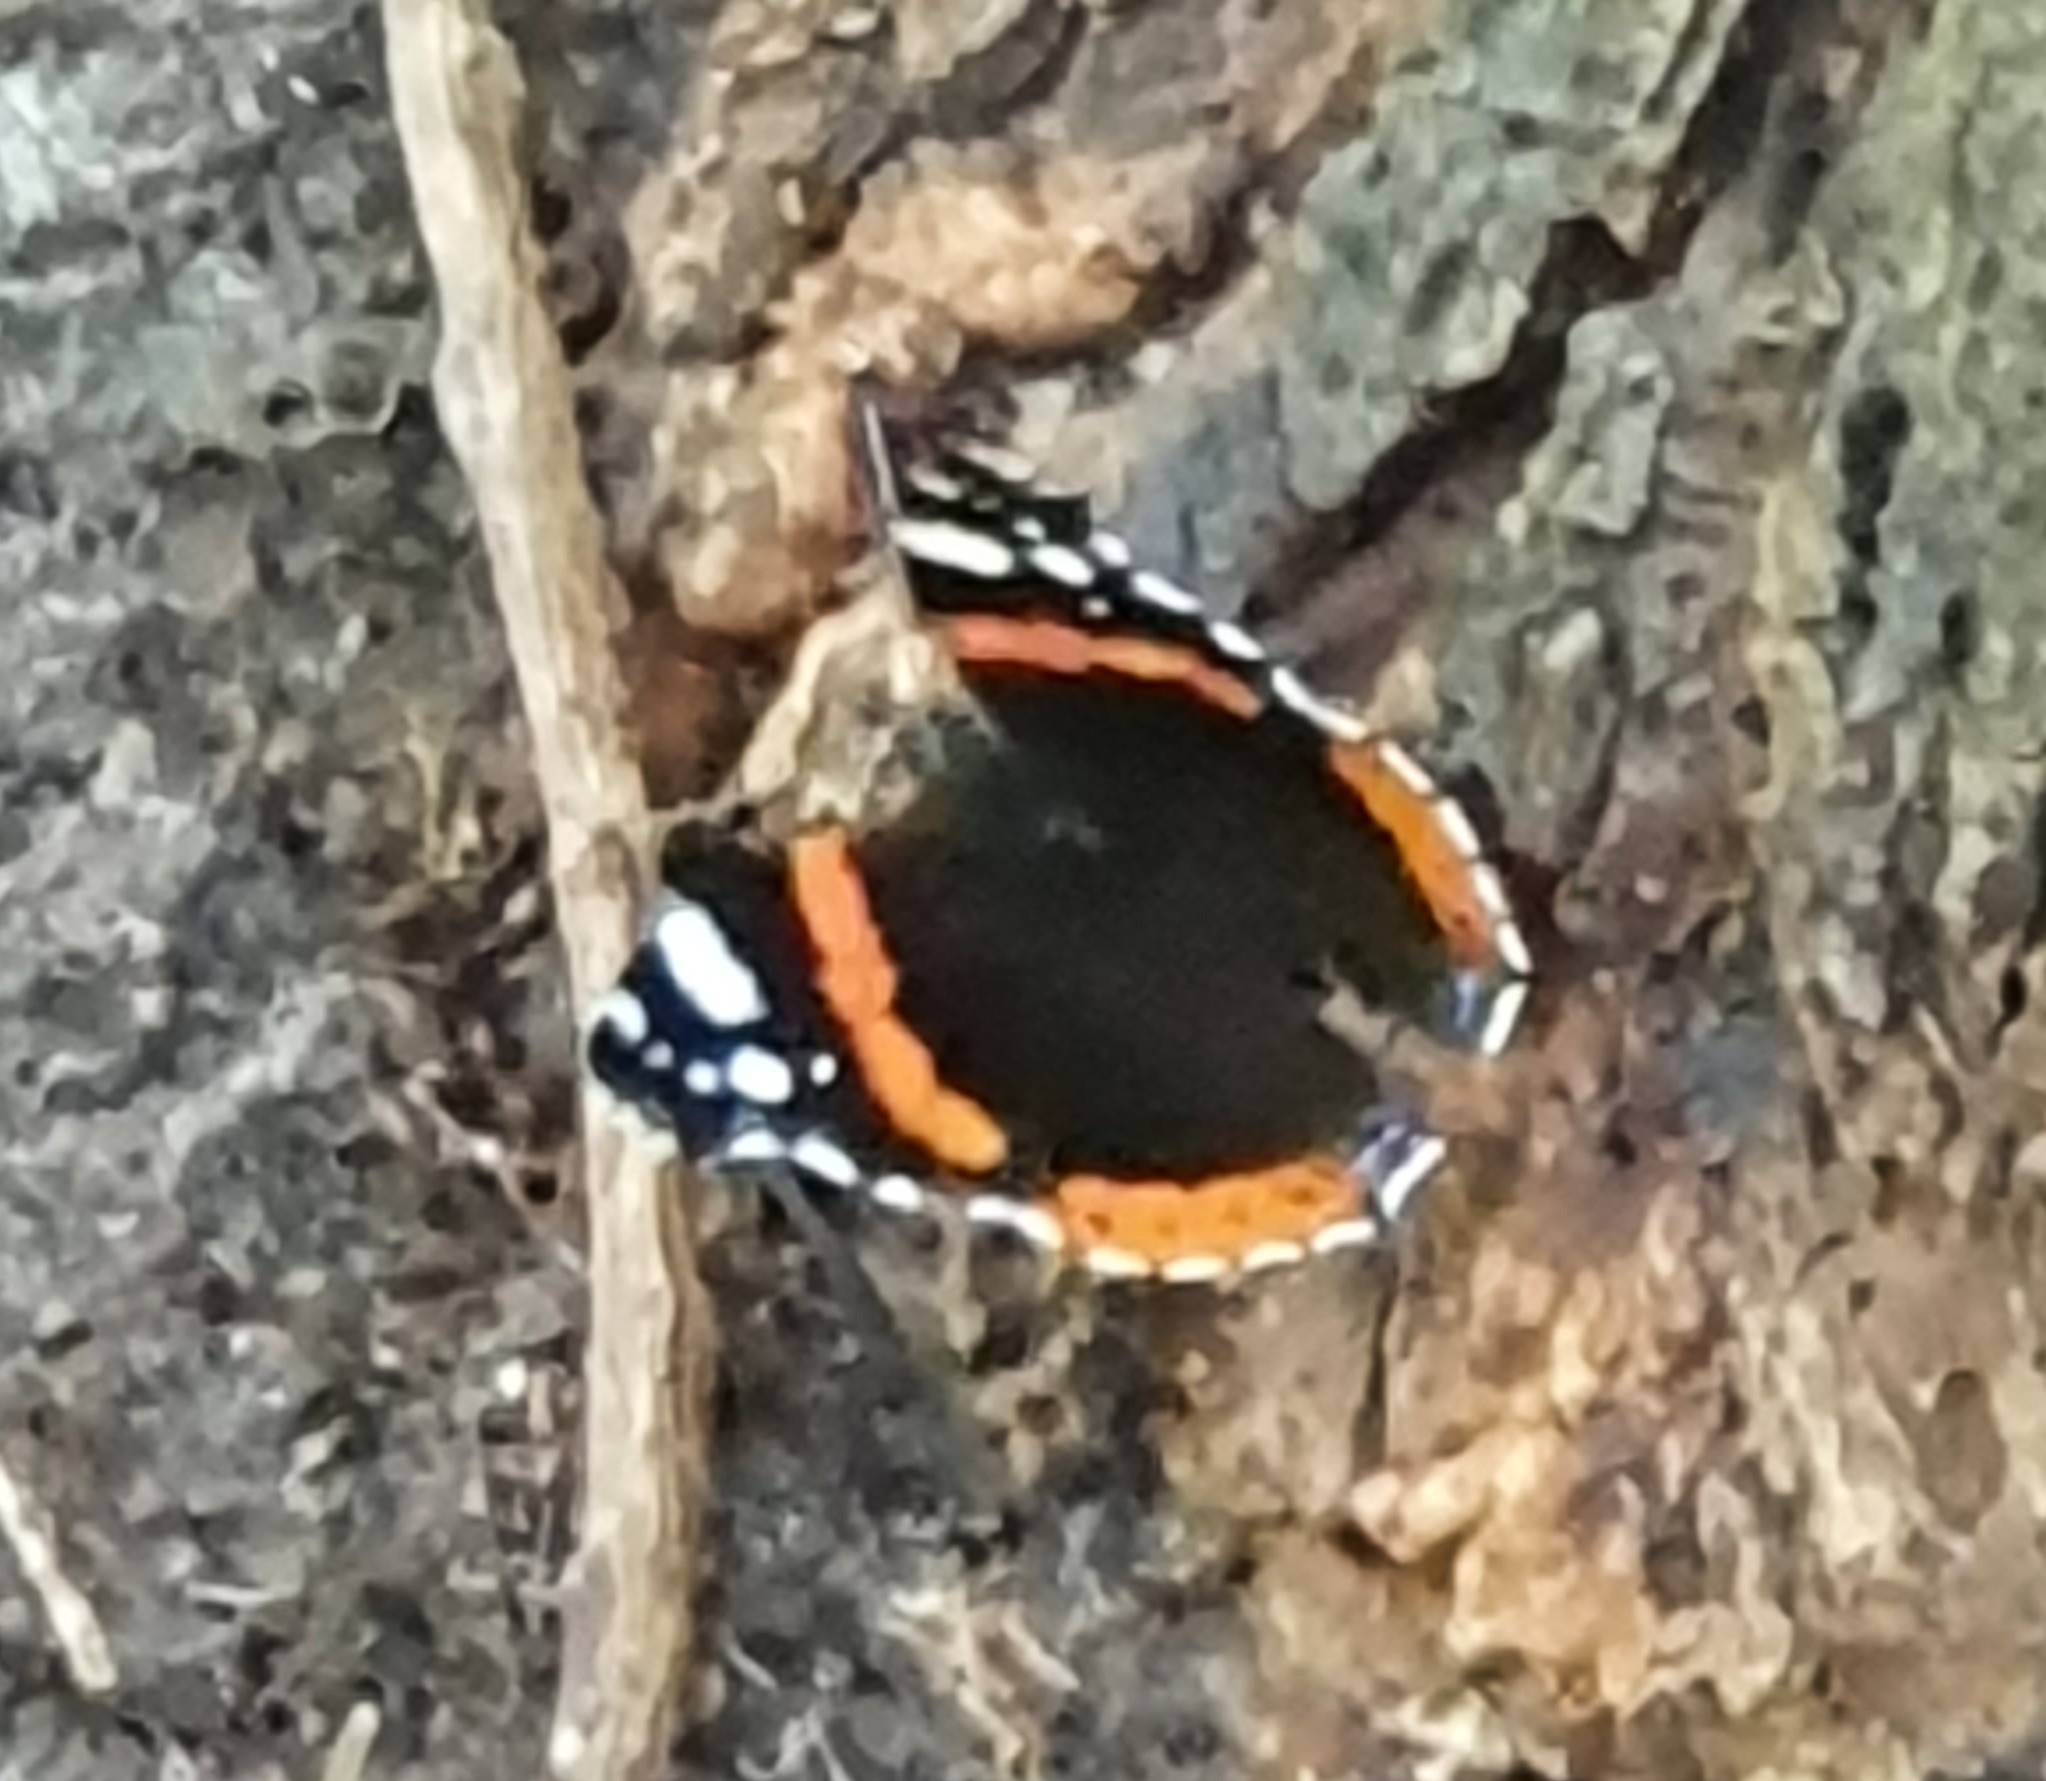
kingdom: Animalia
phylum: Arthropoda
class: Insecta
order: Lepidoptera
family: Nymphalidae
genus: Vanessa
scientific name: Vanessa atalanta
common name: Red admiral
